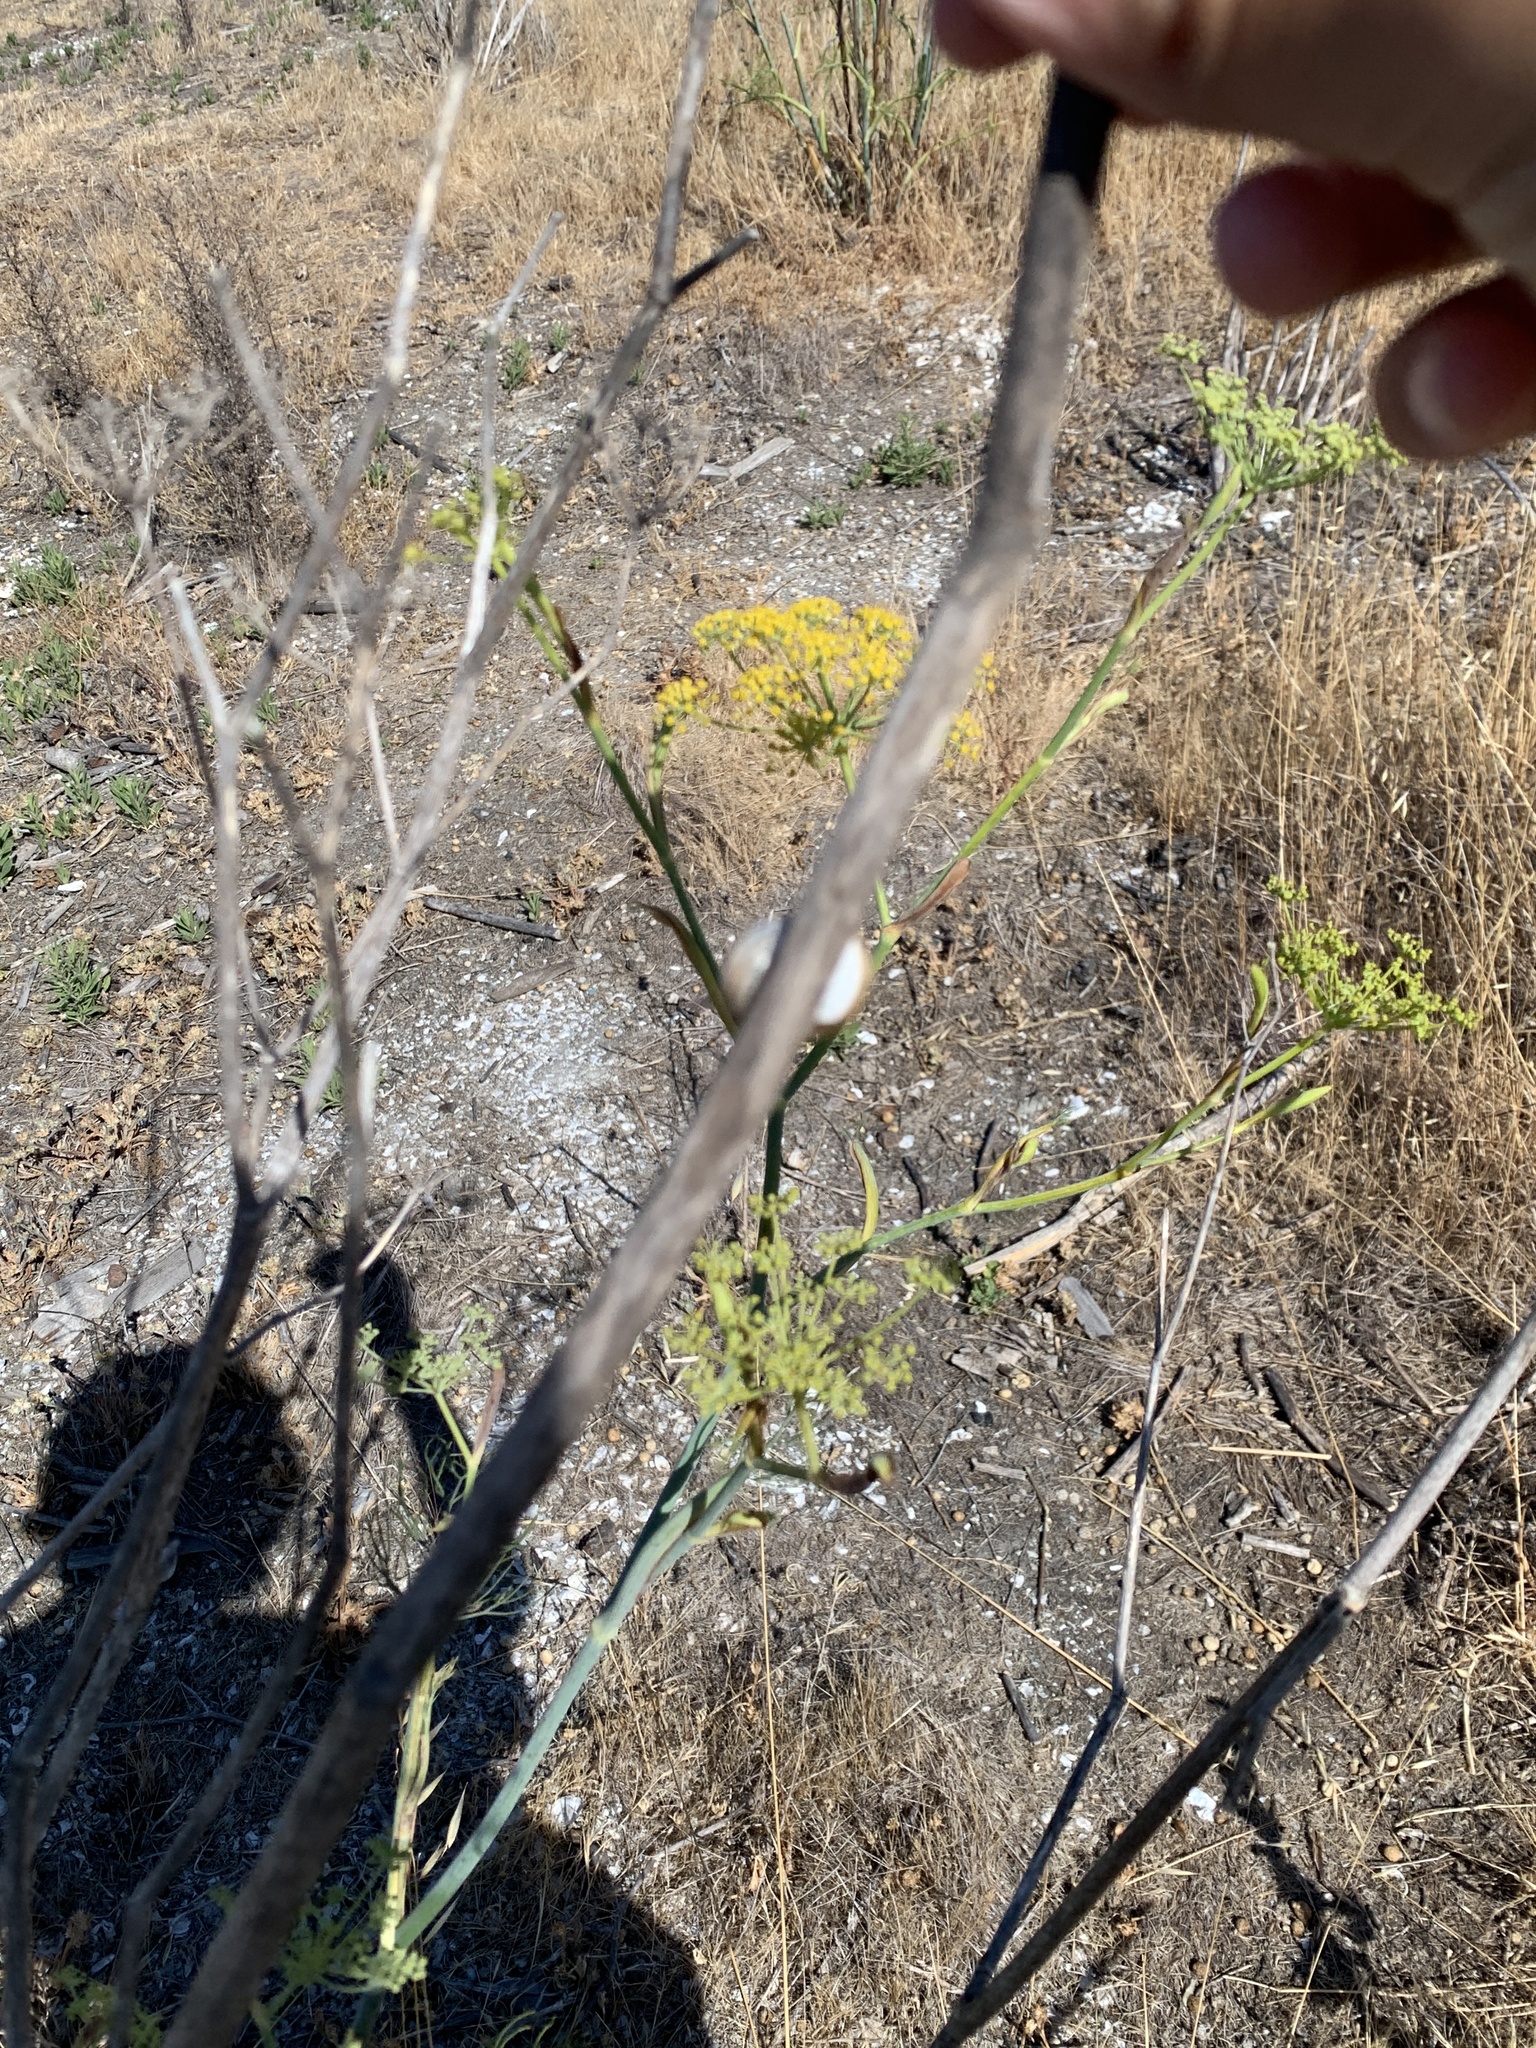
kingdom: Animalia
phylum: Mollusca
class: Gastropoda
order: Stylommatophora
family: Helicidae
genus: Cornu
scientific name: Cornu aspersum
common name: Brown garden snail
